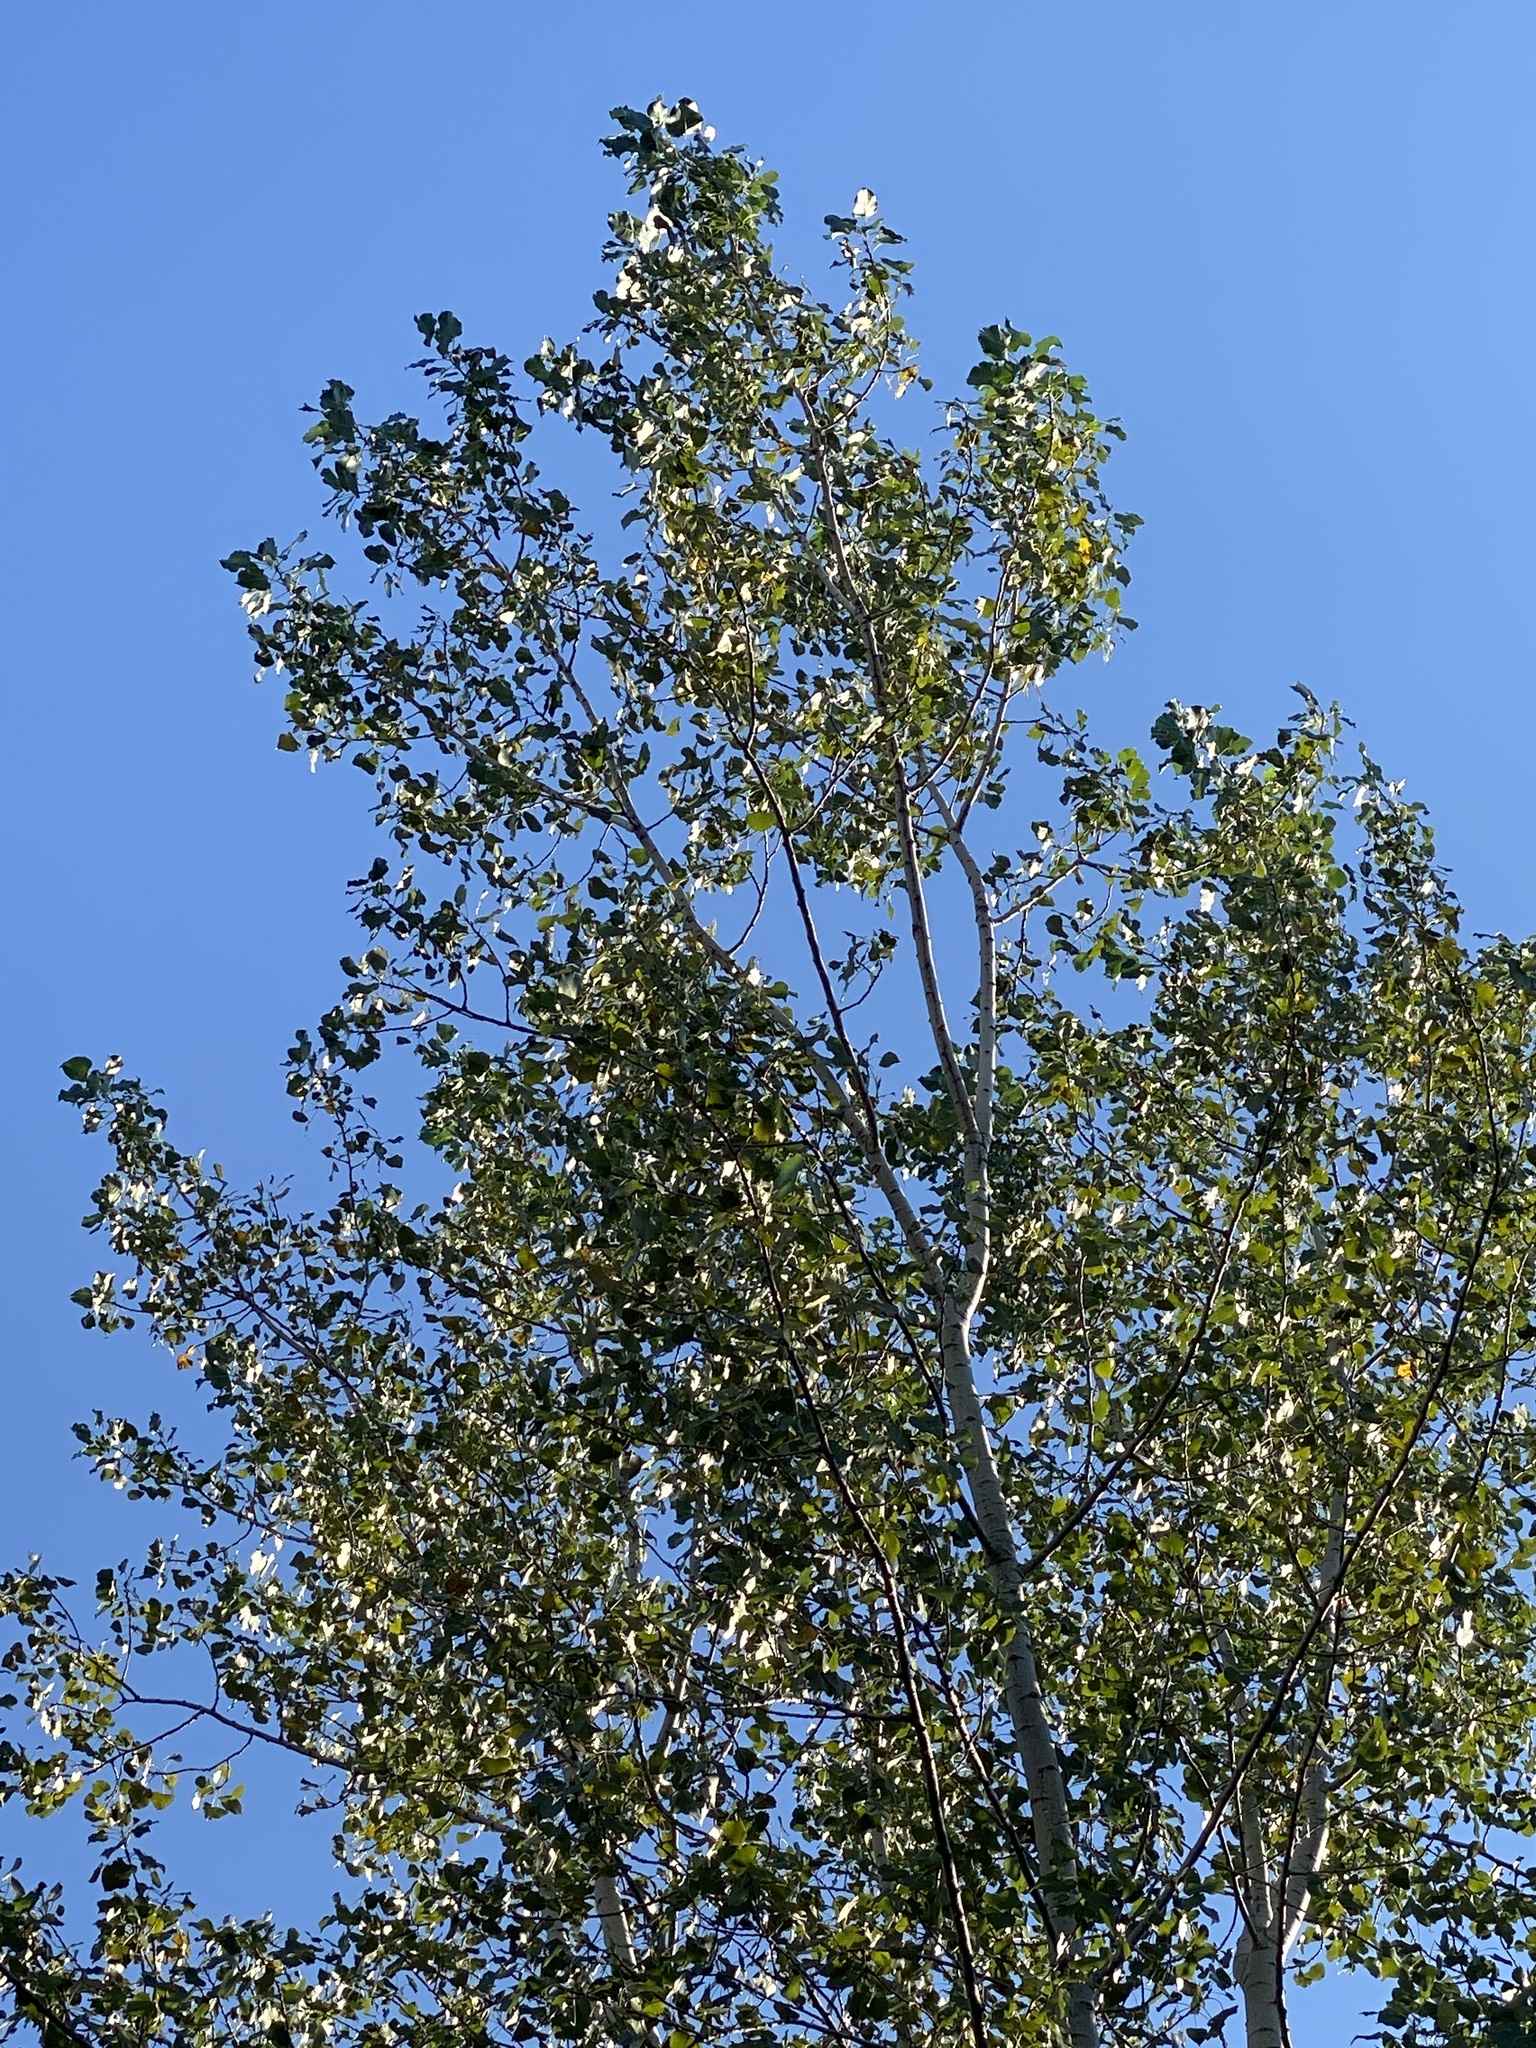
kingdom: Plantae
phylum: Tracheophyta
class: Magnoliopsida
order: Malpighiales
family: Salicaceae
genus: Populus
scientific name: Populus deltoides
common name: Eastern cottonwood
